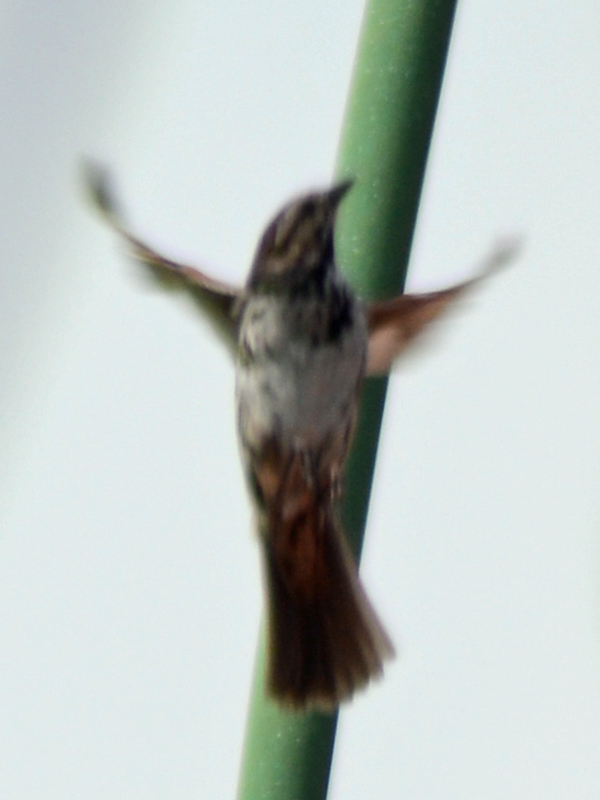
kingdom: Animalia
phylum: Chordata
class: Aves
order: Passeriformes
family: Passerellidae
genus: Melospiza
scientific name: Melospiza melodia
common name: Song sparrow
